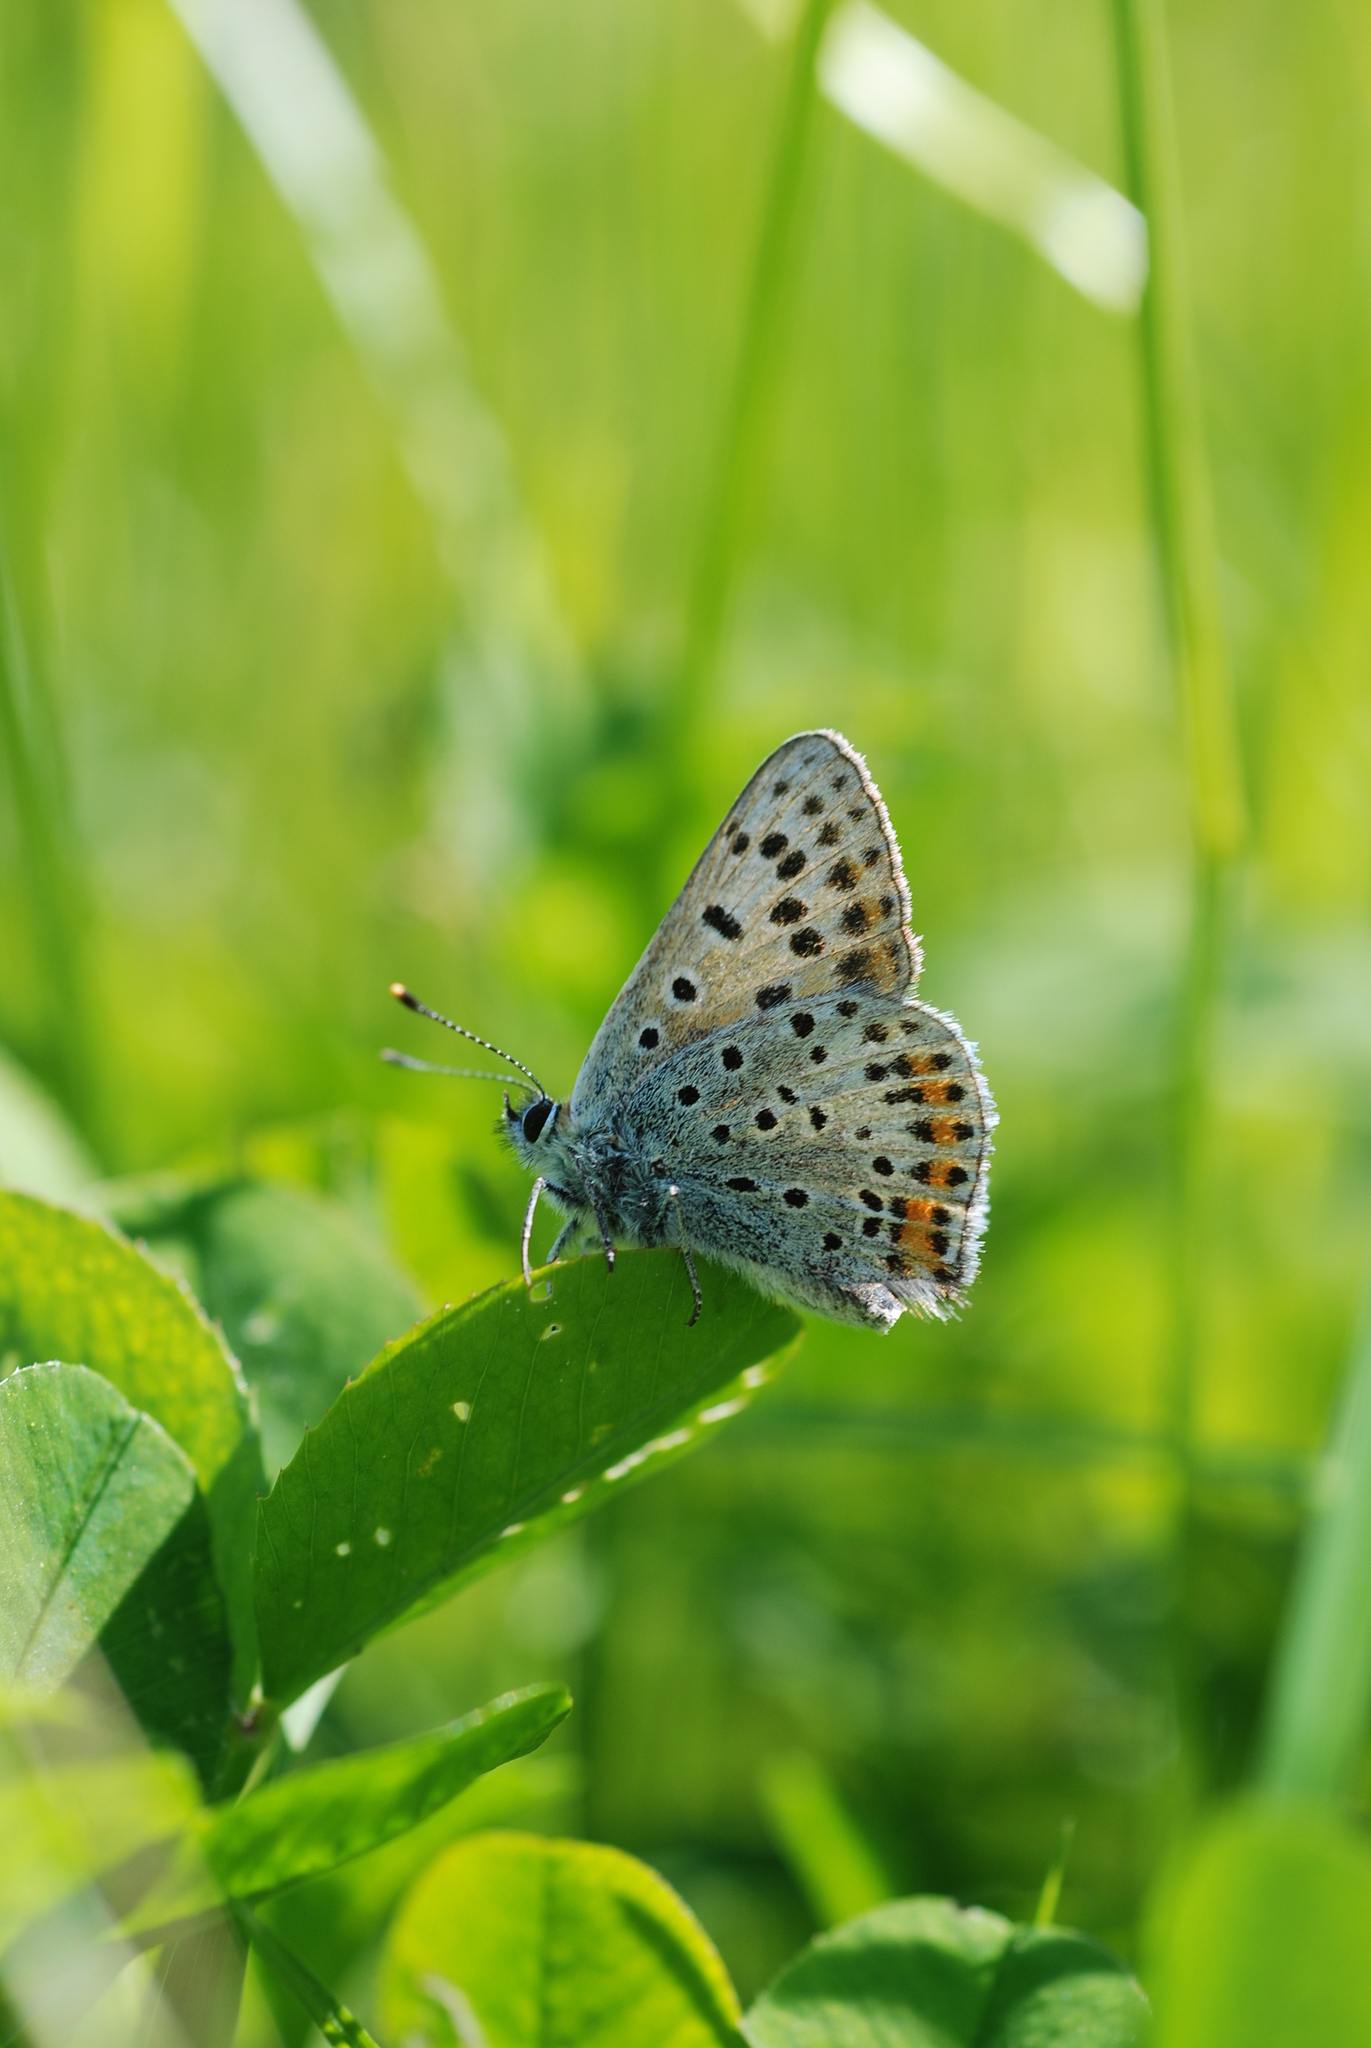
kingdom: Animalia
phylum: Arthropoda
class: Insecta
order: Lepidoptera
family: Lycaenidae
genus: Loweia
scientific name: Loweia tityrus
